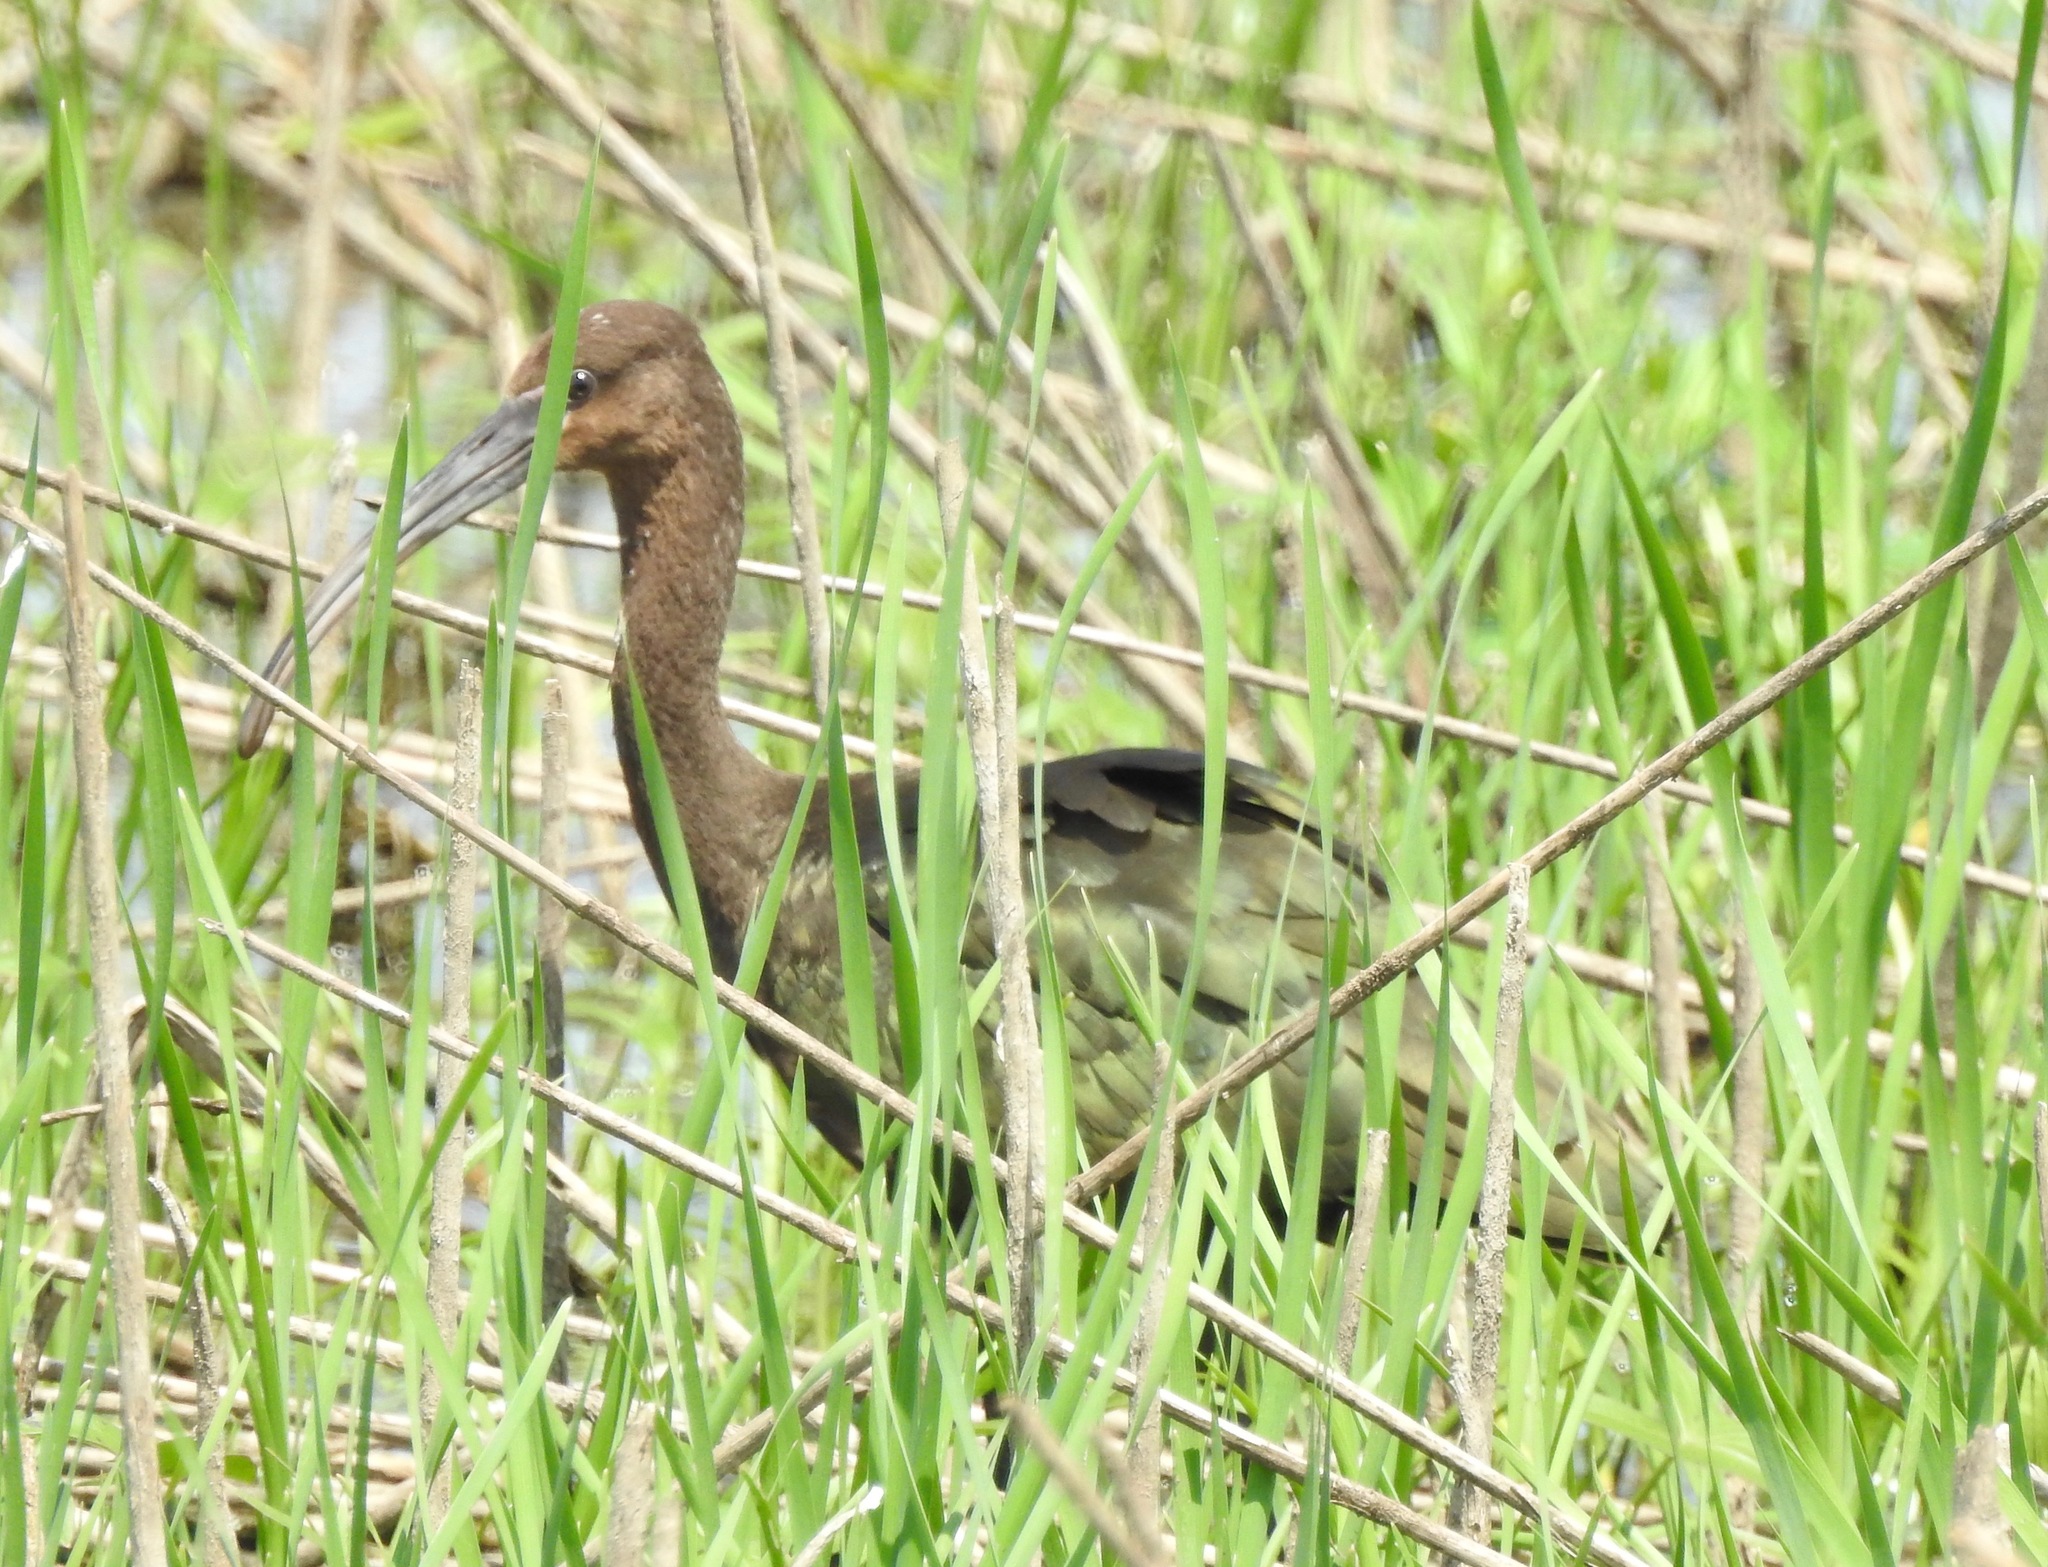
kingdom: Animalia
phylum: Chordata
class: Aves
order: Pelecaniformes
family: Threskiornithidae
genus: Plegadis
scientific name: Plegadis chihi
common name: White-faced ibis
